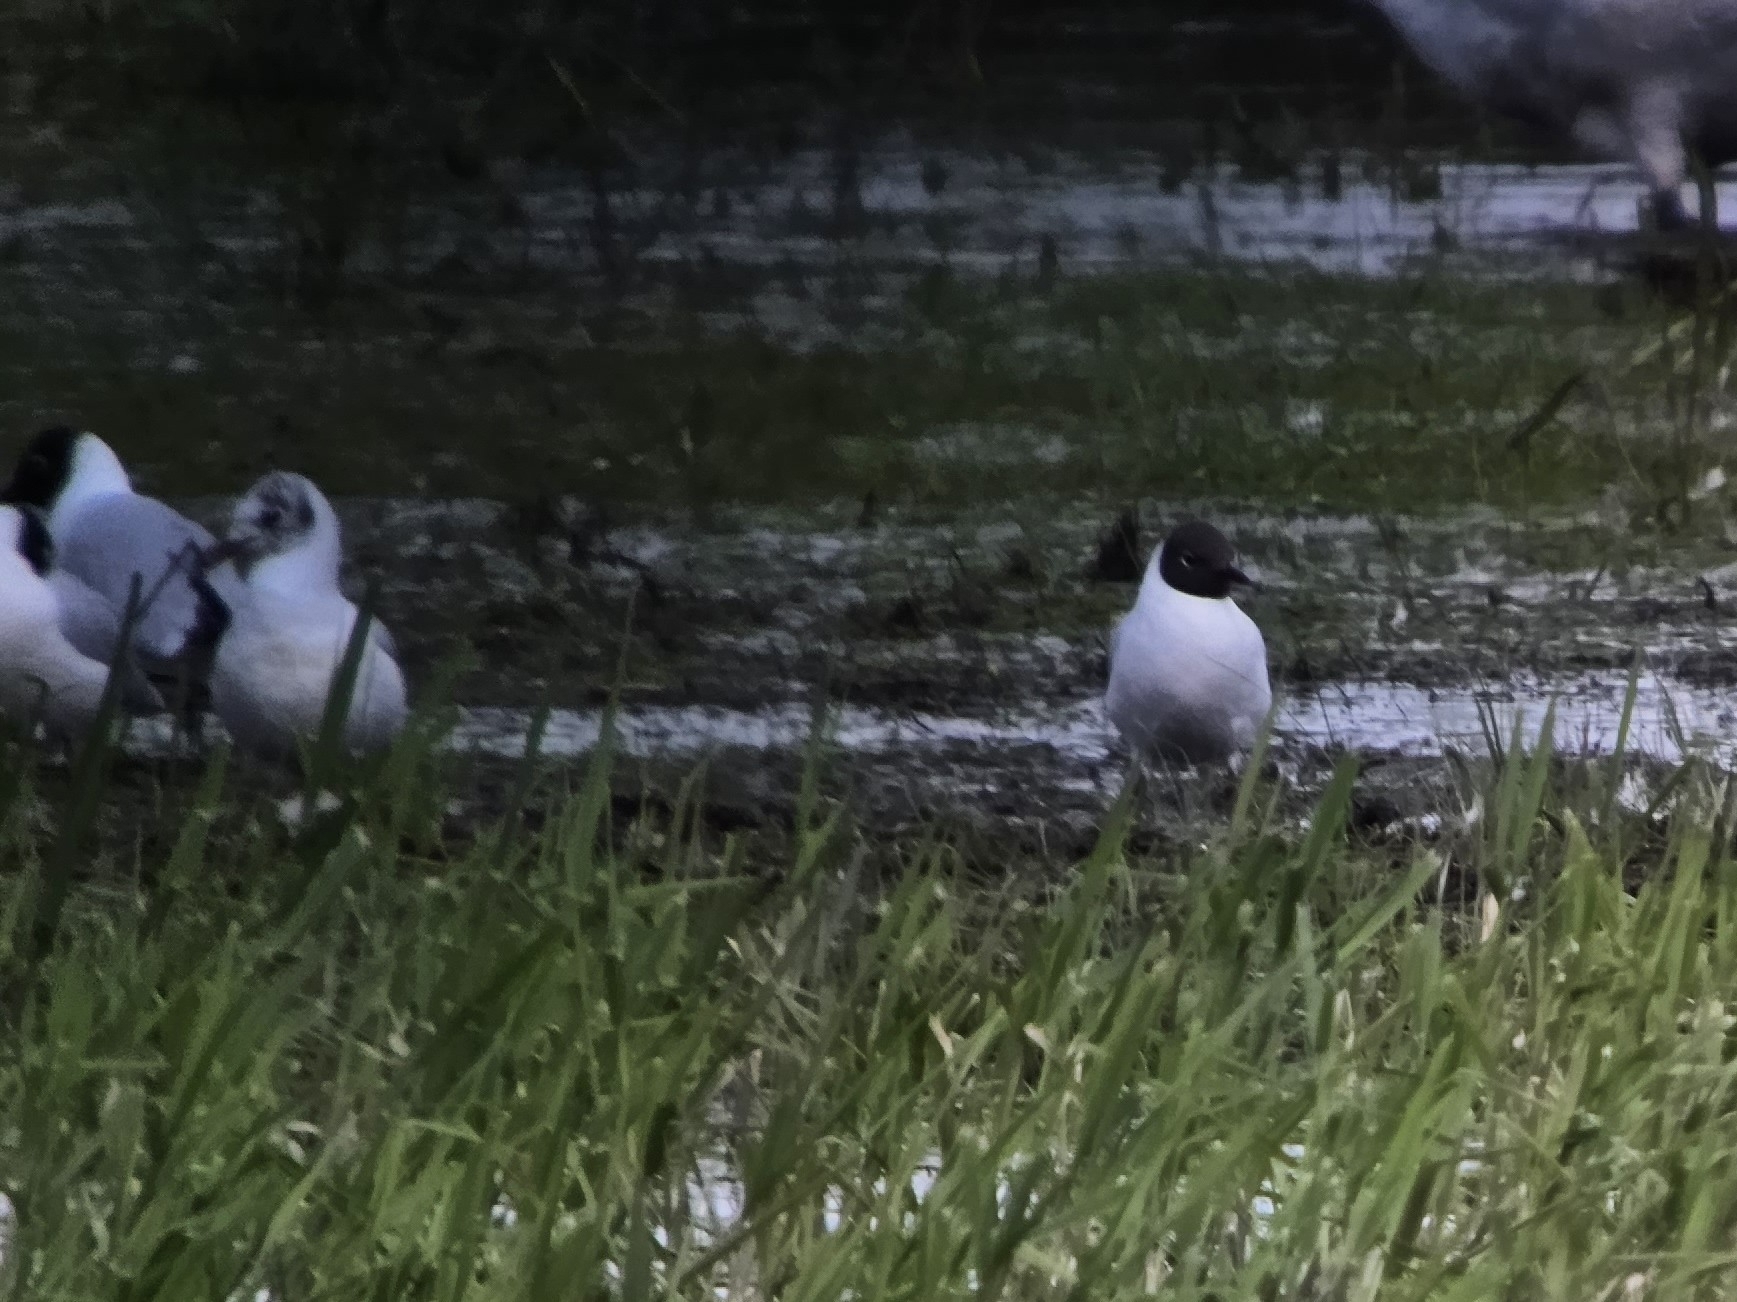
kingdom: Animalia
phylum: Chordata
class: Aves
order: Charadriiformes
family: Laridae
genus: Chroicocephalus
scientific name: Chroicocephalus ridibundus
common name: Black-headed gull
